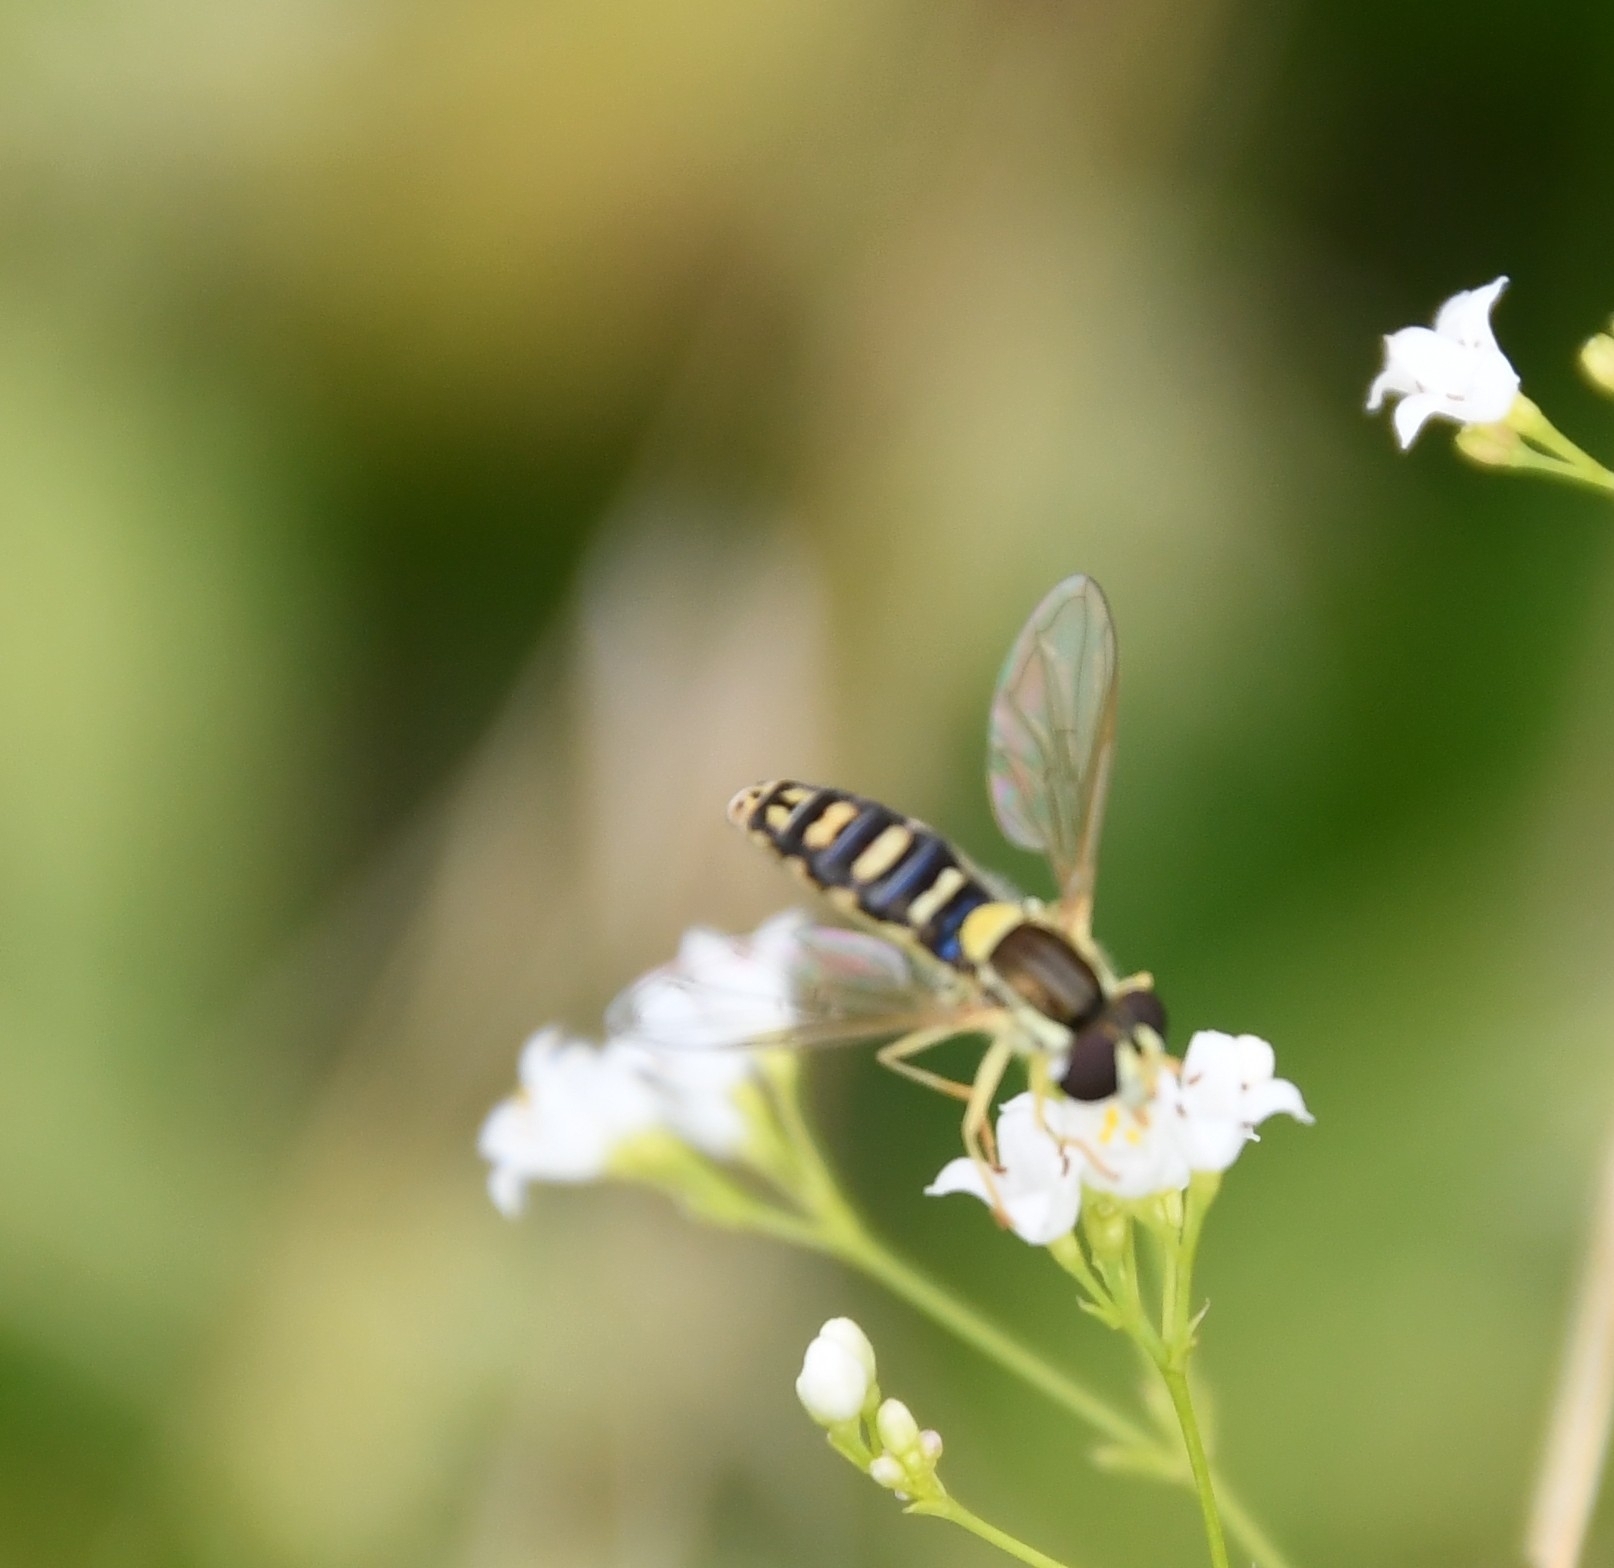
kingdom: Animalia
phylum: Arthropoda
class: Insecta
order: Diptera
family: Syrphidae
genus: Sphaerophoria
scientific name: Sphaerophoria
